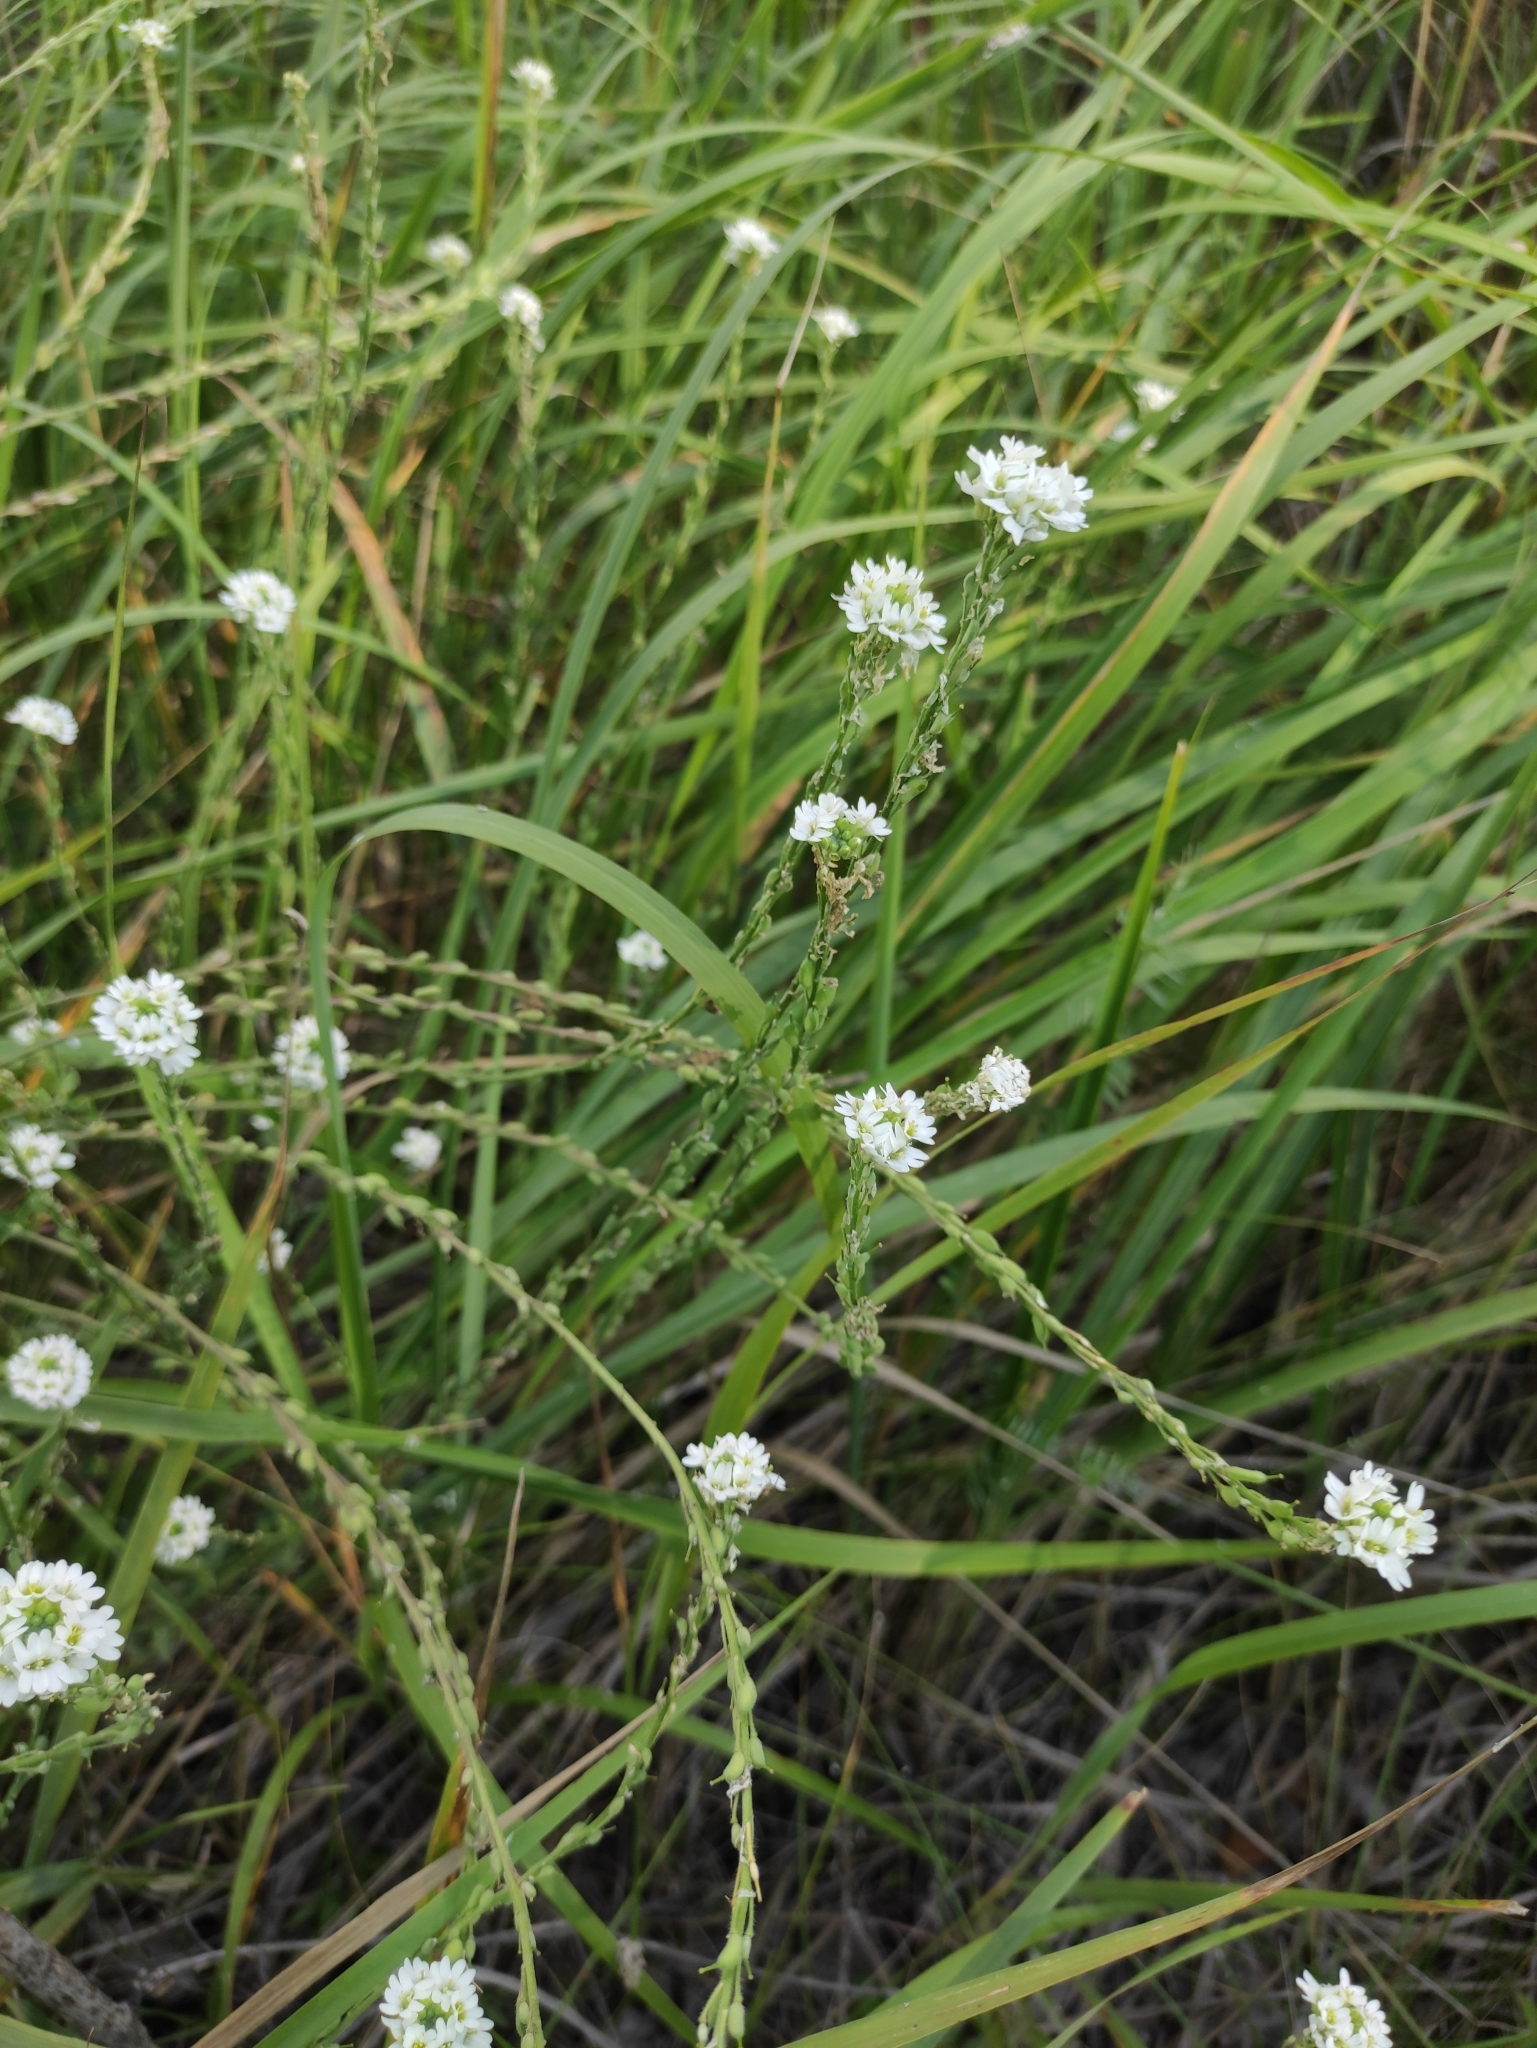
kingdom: Plantae
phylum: Tracheophyta
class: Magnoliopsida
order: Brassicales
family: Brassicaceae
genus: Berteroa
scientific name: Berteroa incana
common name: Hoary alison
